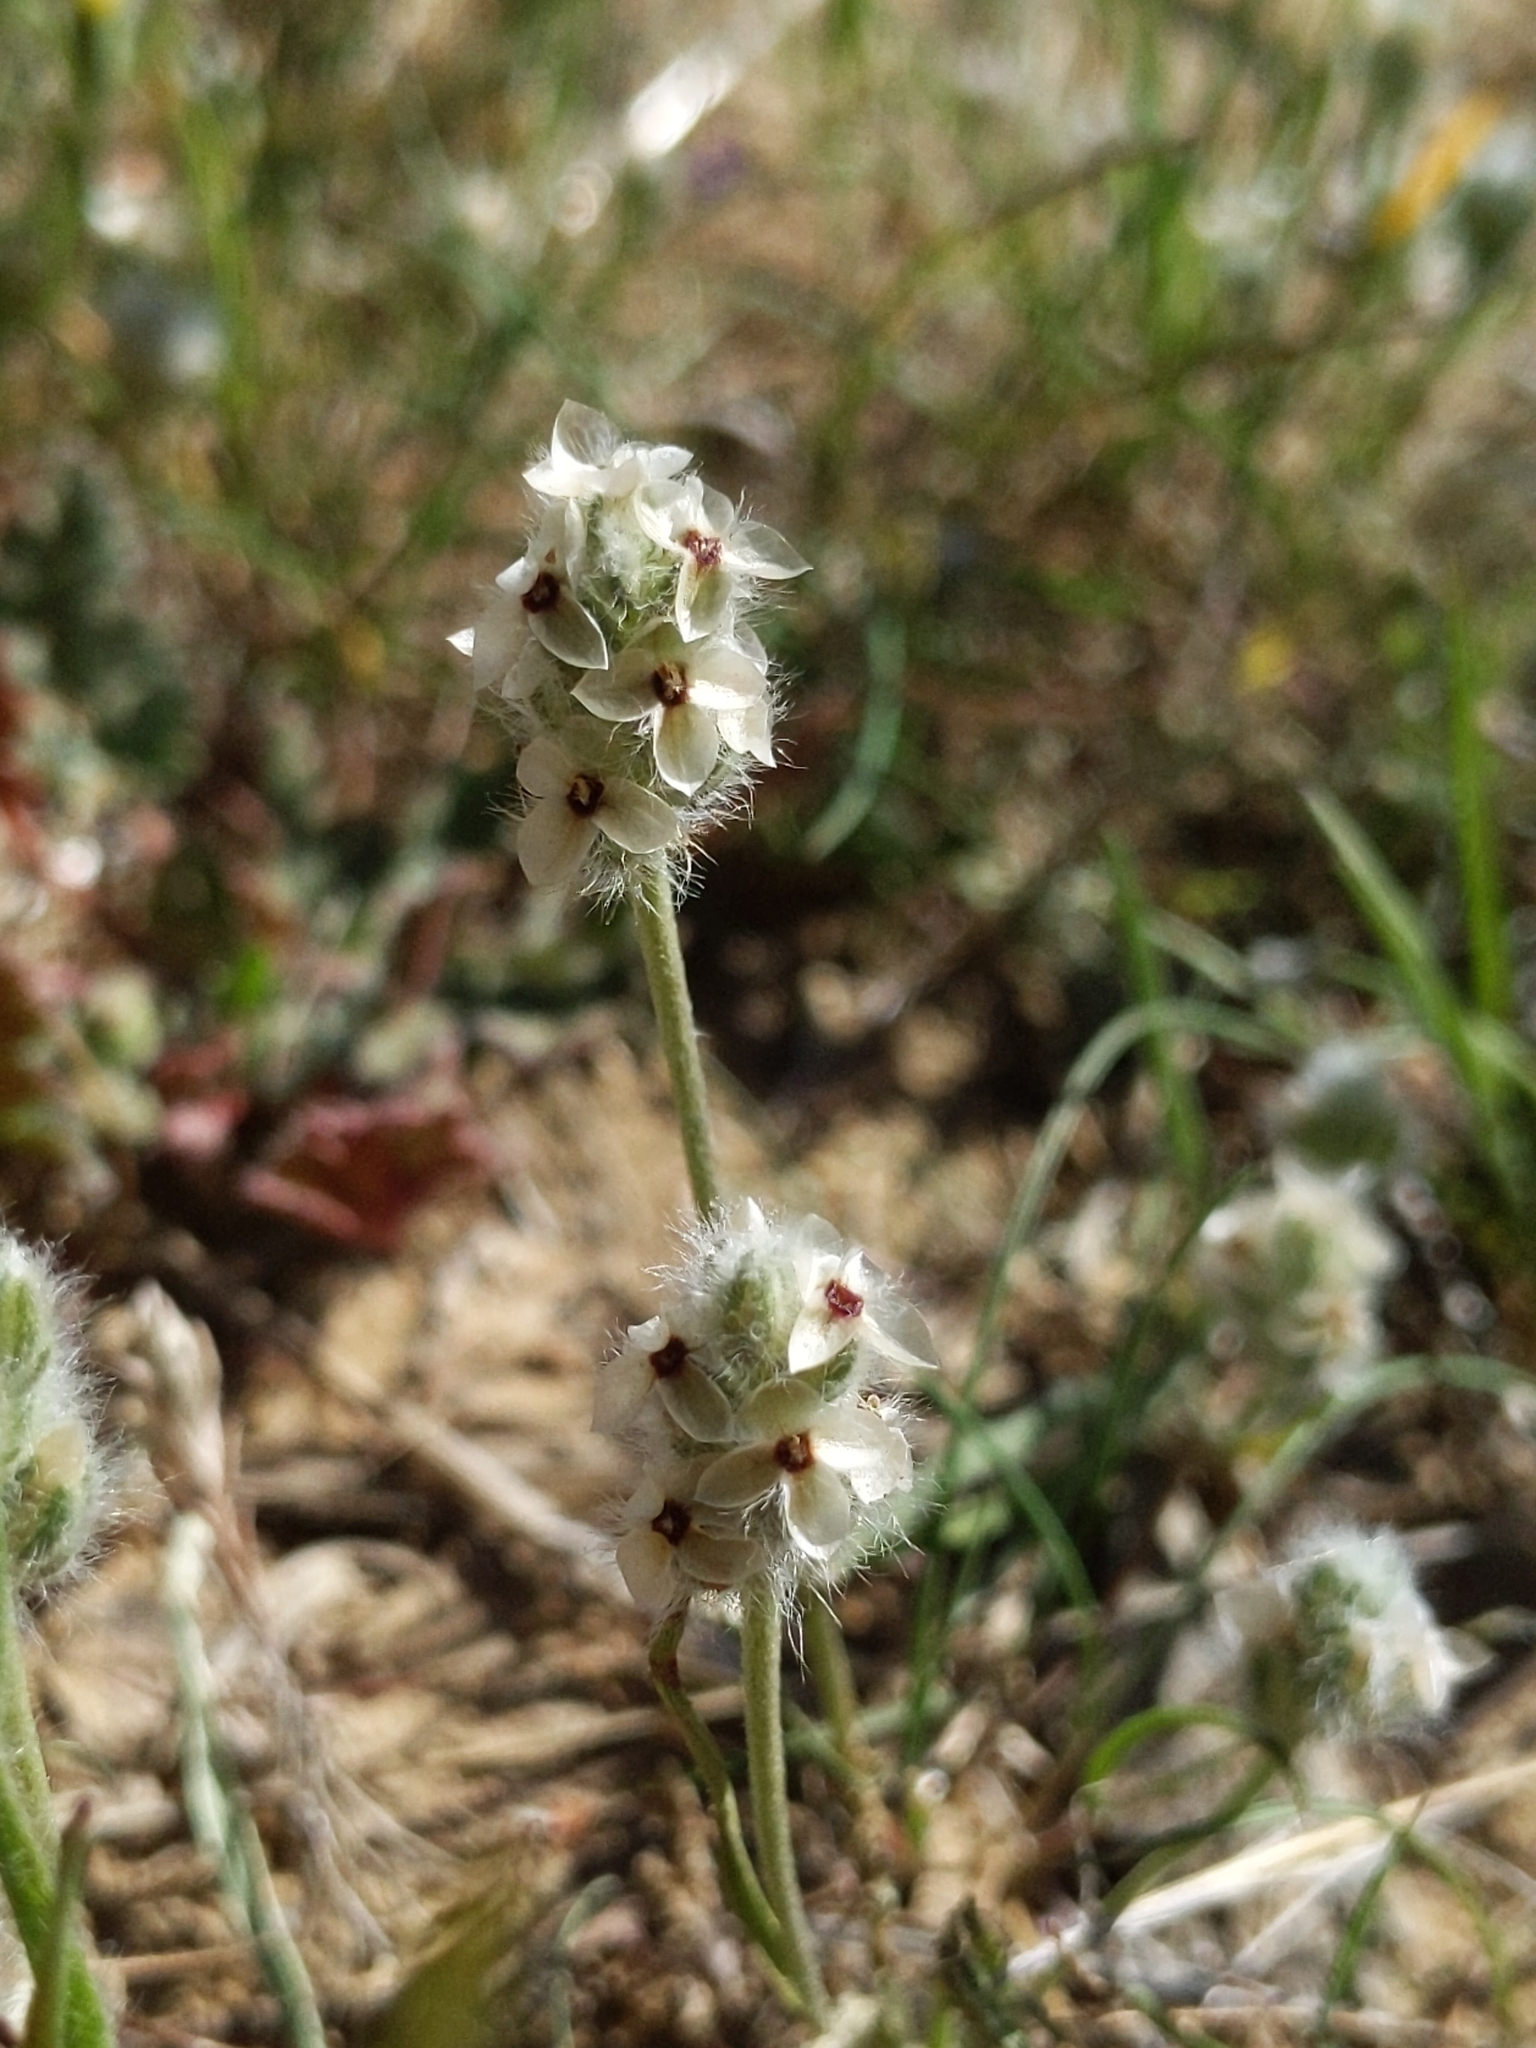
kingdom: Plantae
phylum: Tracheophyta
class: Magnoliopsida
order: Lamiales
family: Plantaginaceae
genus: Plantago
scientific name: Plantago erecta
